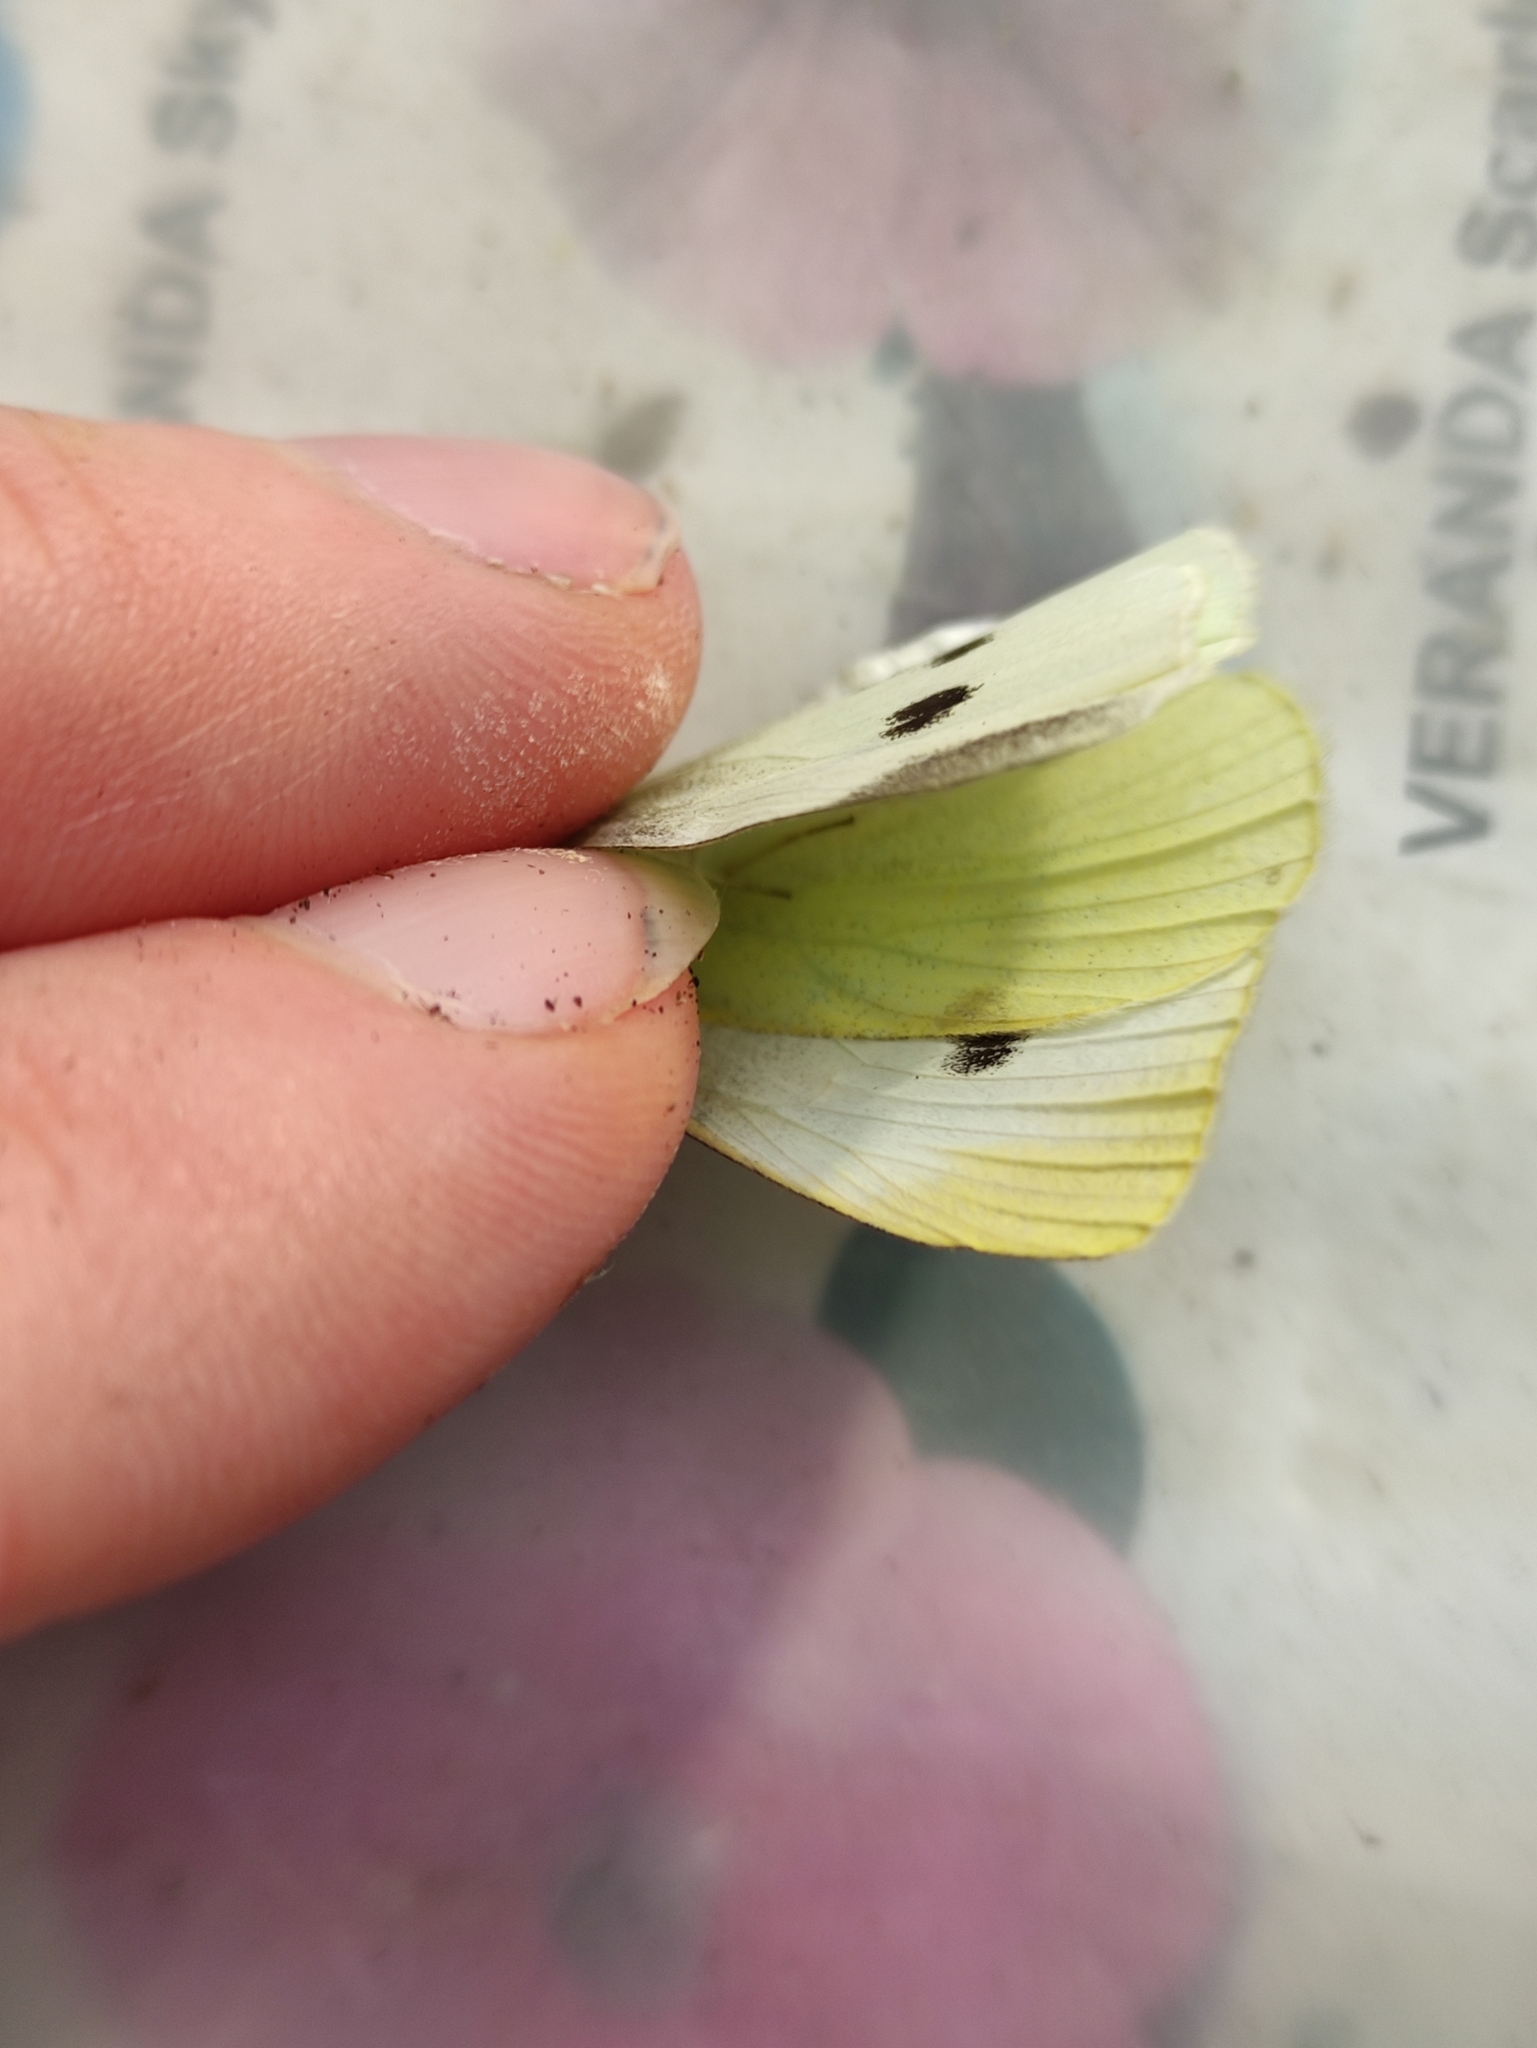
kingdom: Animalia
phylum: Arthropoda
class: Insecta
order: Lepidoptera
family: Pieridae
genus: Pieris
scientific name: Pieris rapae
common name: Small white
